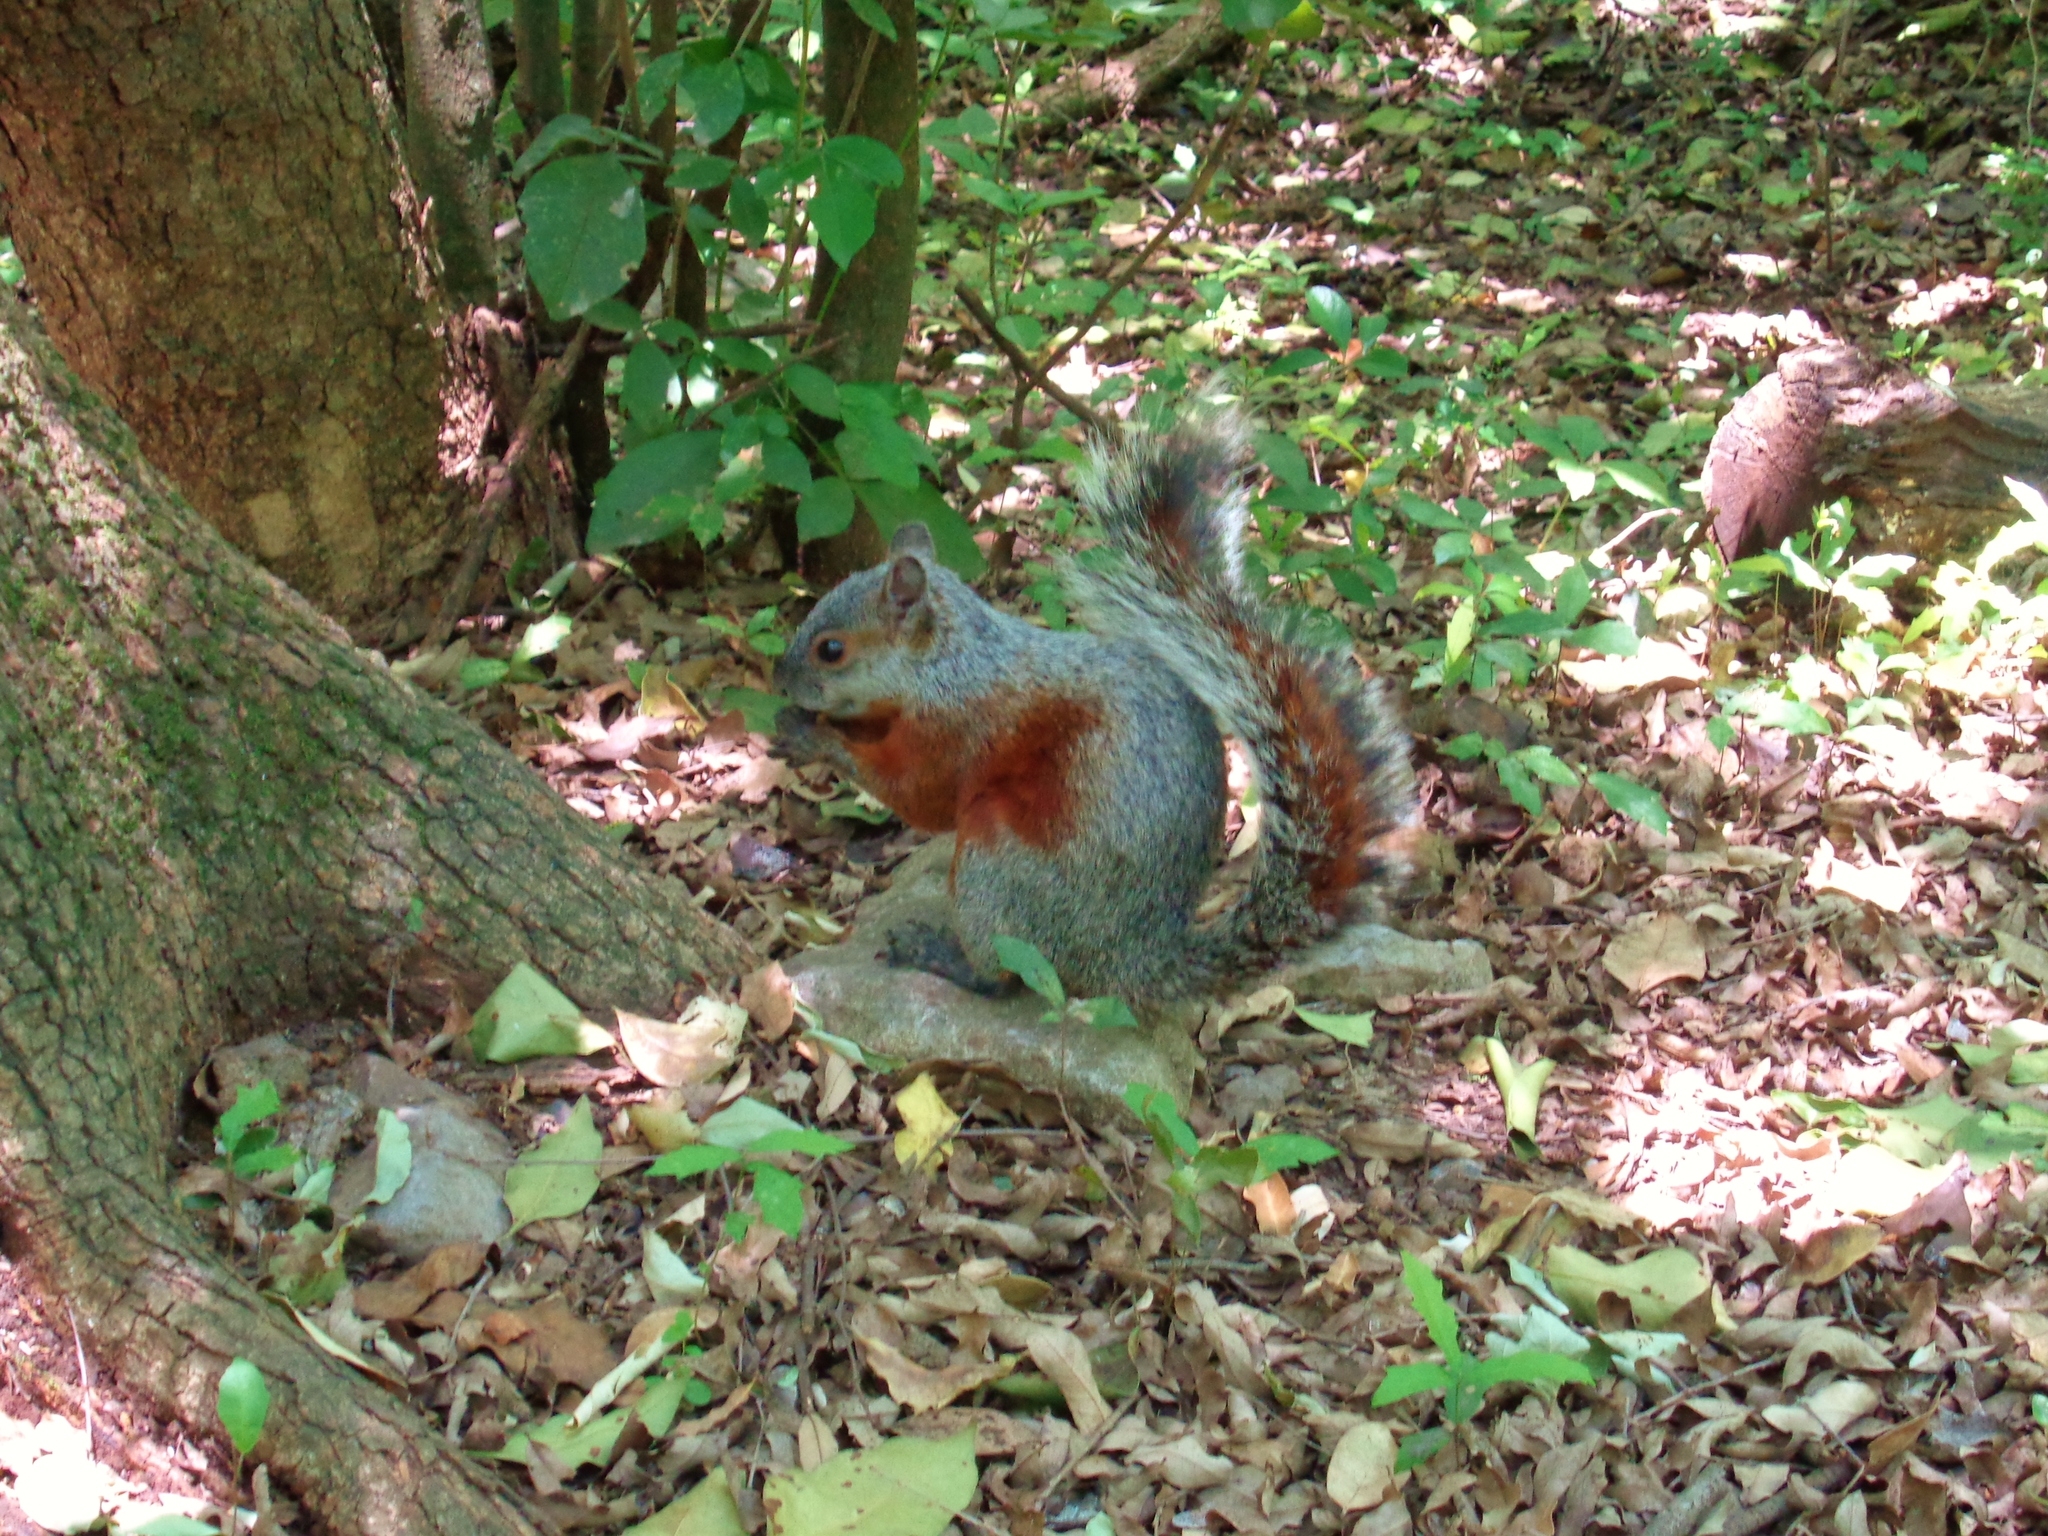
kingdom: Animalia
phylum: Chordata
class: Mammalia
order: Rodentia
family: Sciuridae
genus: Sciurus
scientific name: Sciurus aureogaster
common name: Red-bellied squirrel
